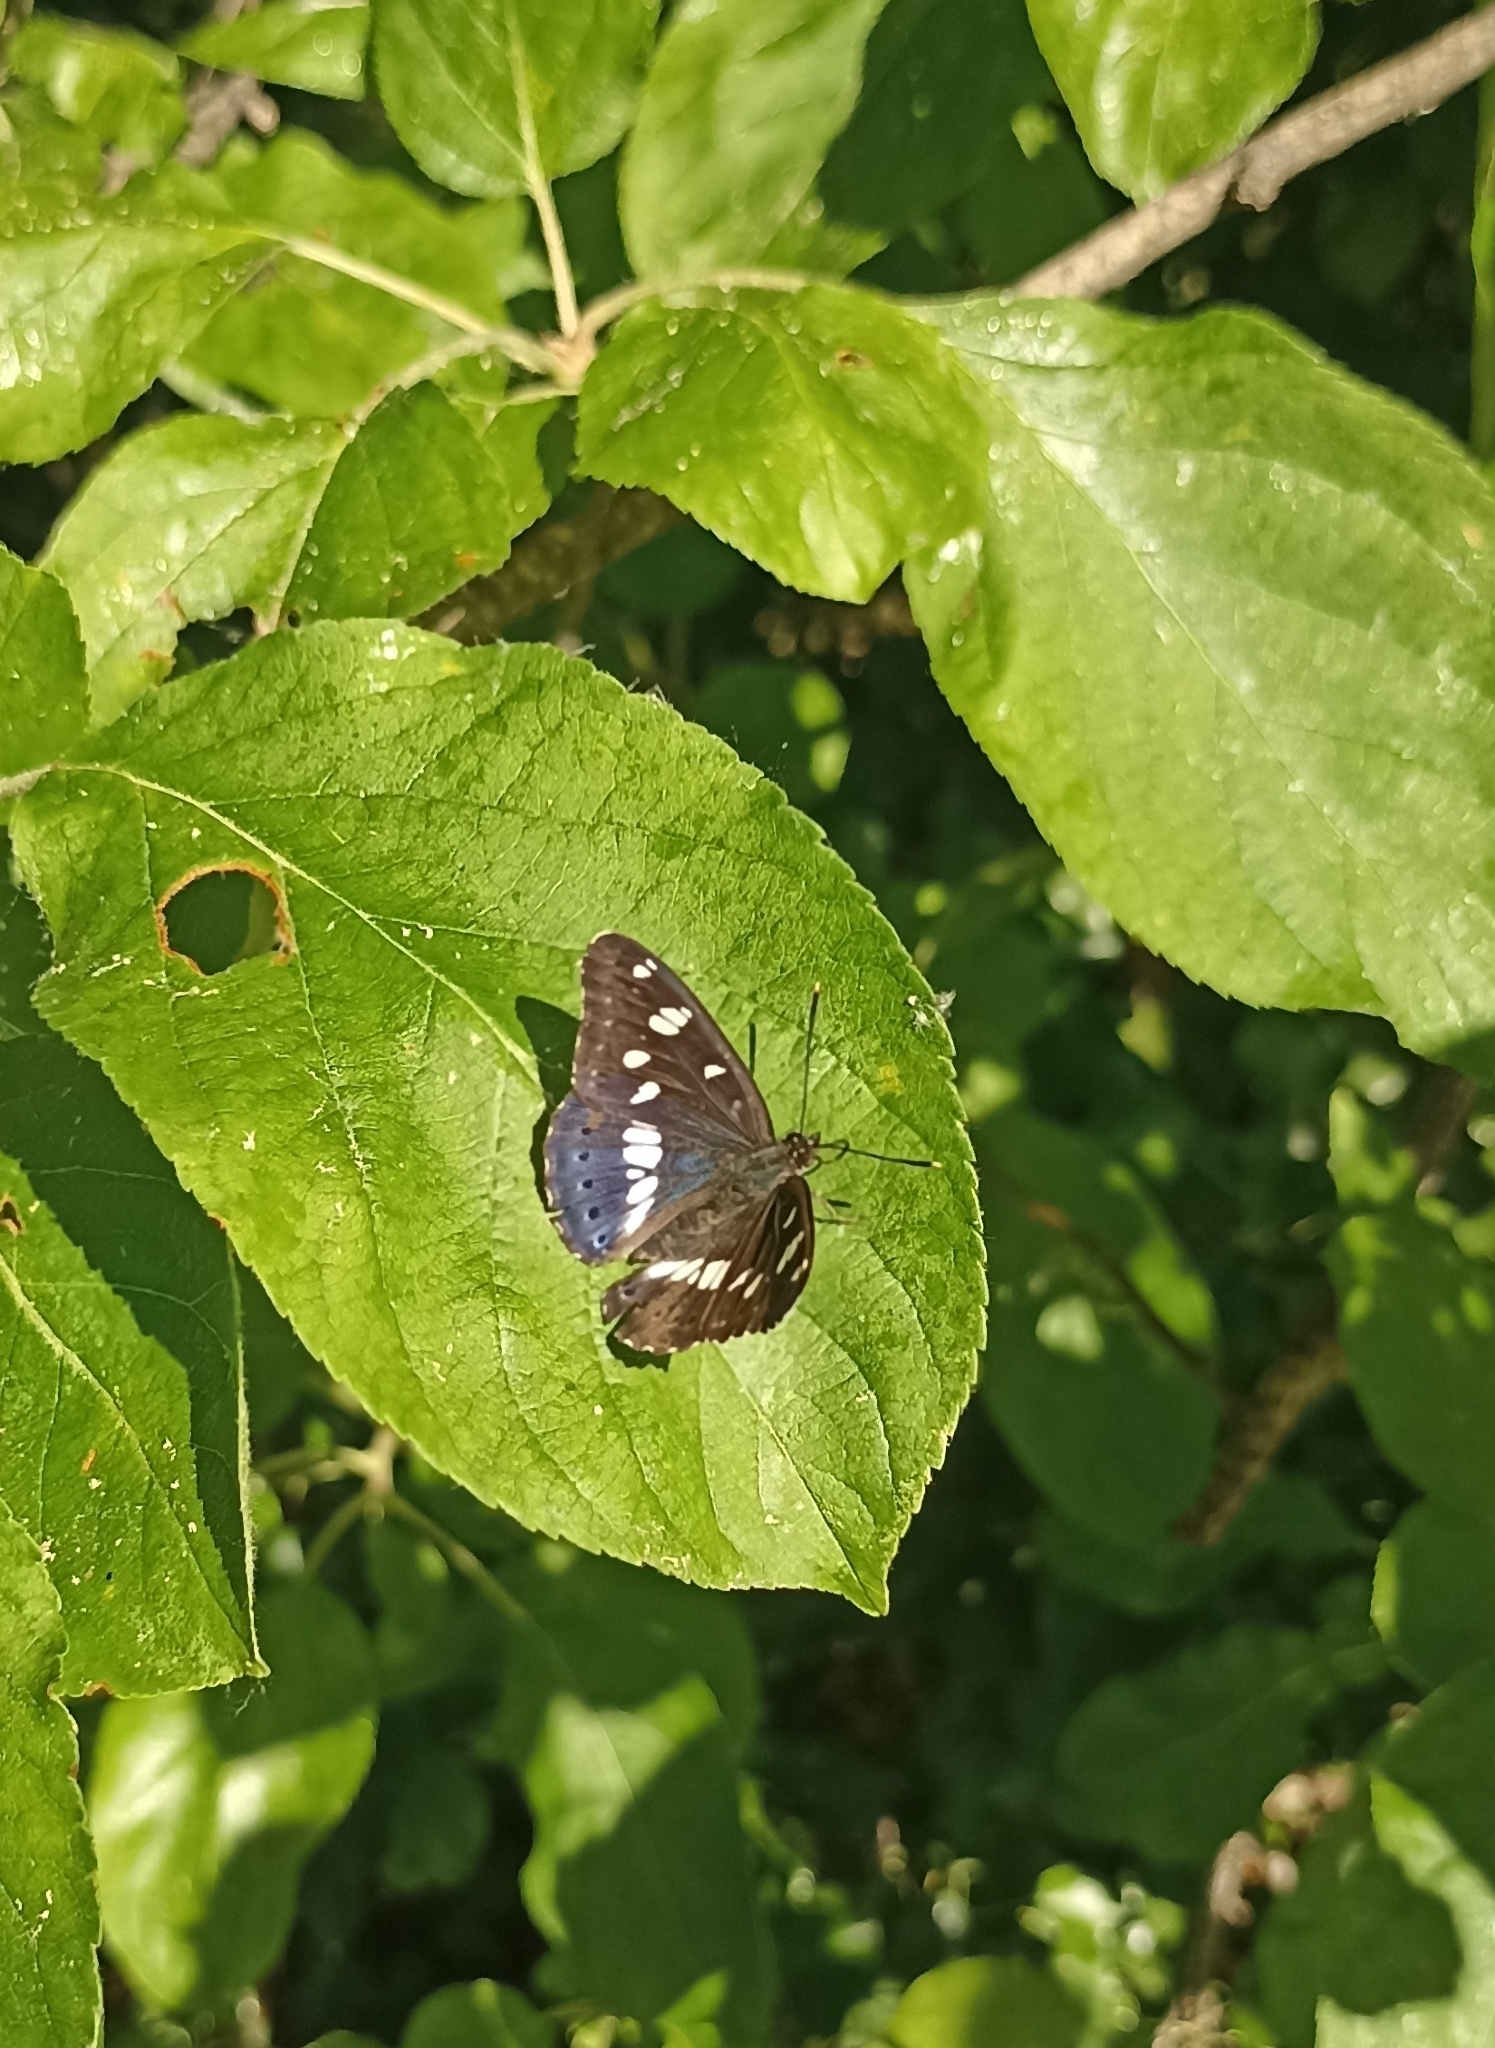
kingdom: Animalia
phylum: Arthropoda
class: Insecta
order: Lepidoptera
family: Nymphalidae
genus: Limenitis
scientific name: Limenitis reducta
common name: Southern white admiral
